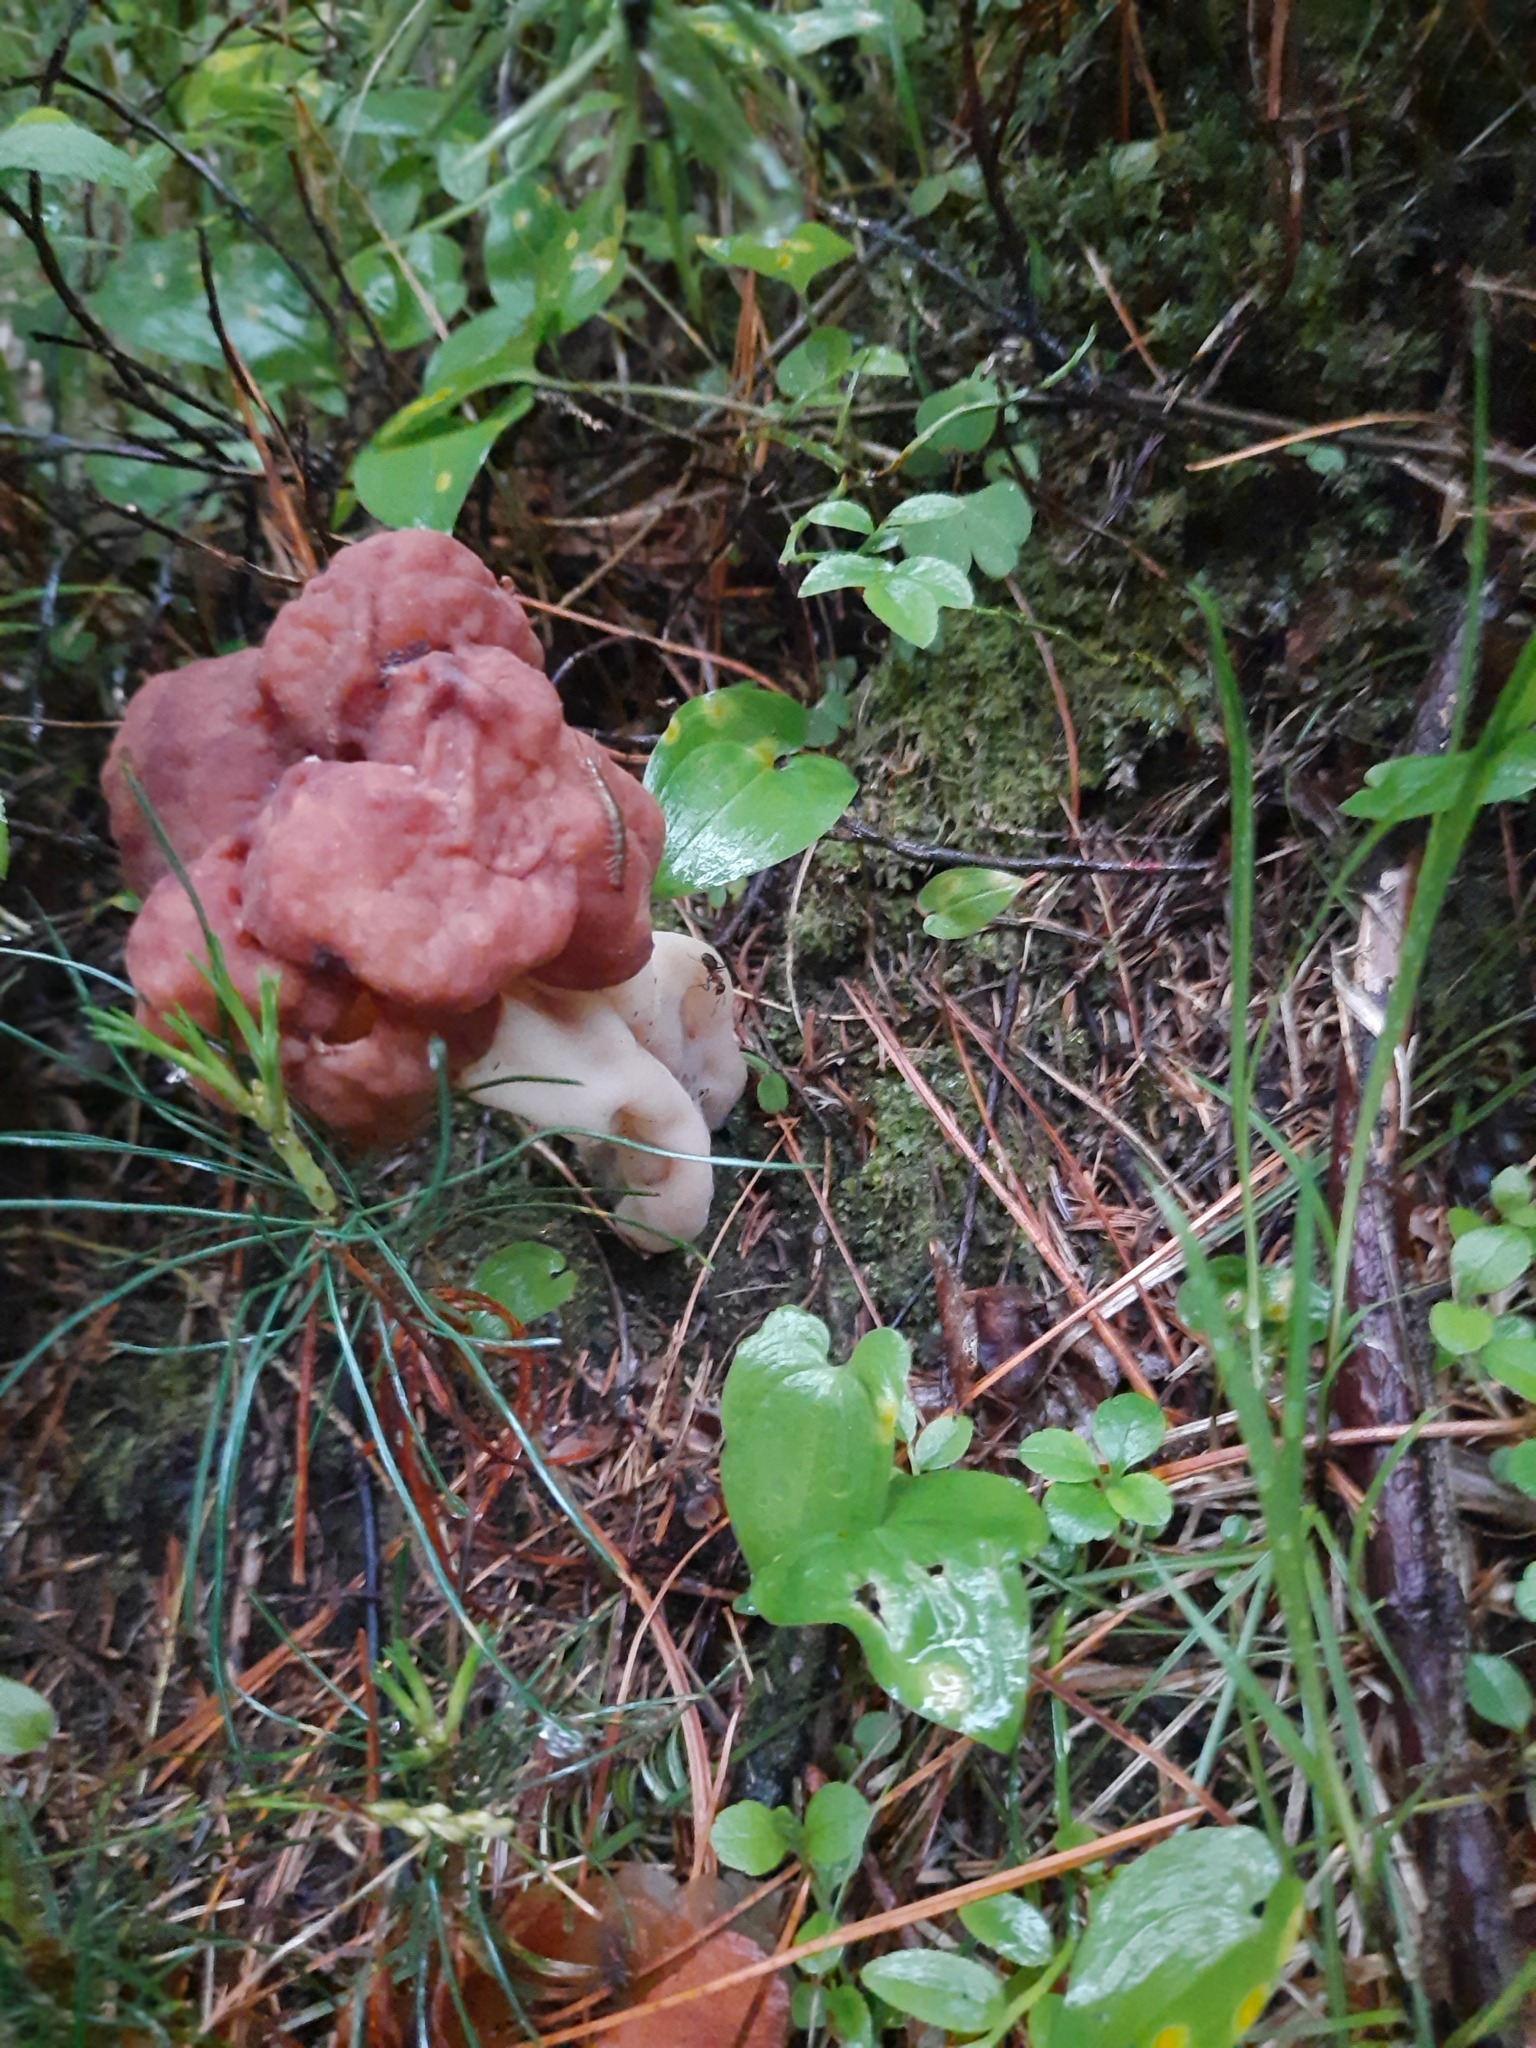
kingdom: Fungi
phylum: Ascomycota
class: Pezizomycetes
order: Pezizales
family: Discinaceae
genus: Gyromitra
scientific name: Gyromitra esculenta
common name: False morel
